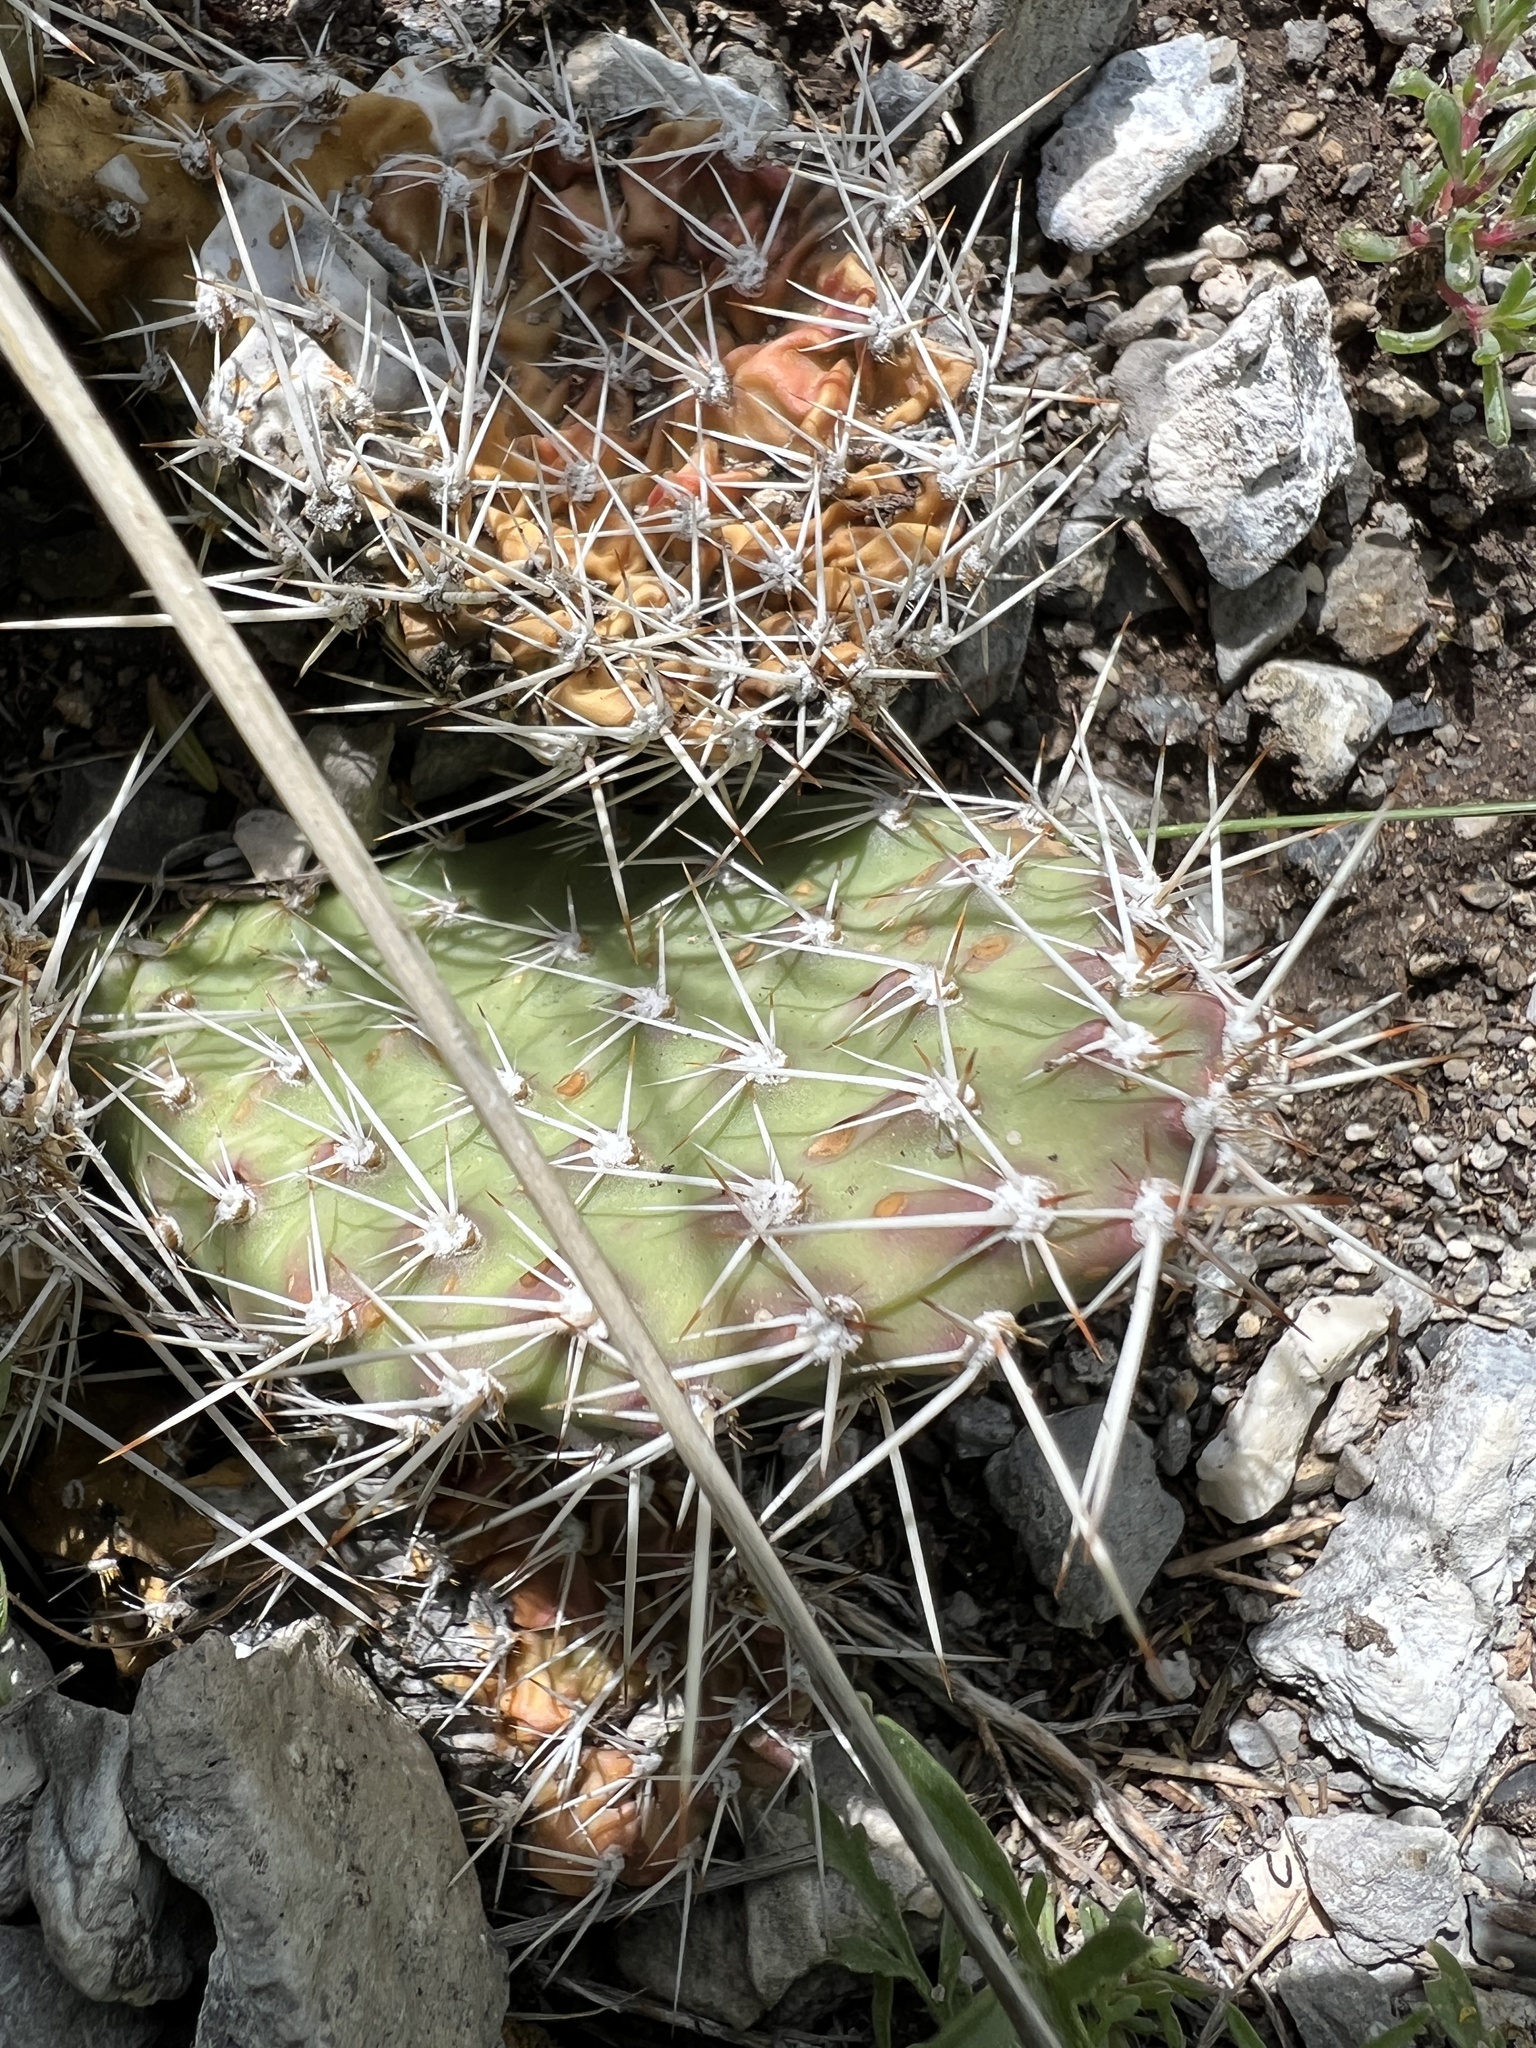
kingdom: Plantae
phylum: Tracheophyta
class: Magnoliopsida
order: Caryophyllales
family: Cactaceae
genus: Opuntia
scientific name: Opuntia polyacantha
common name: Plains prickly-pear
